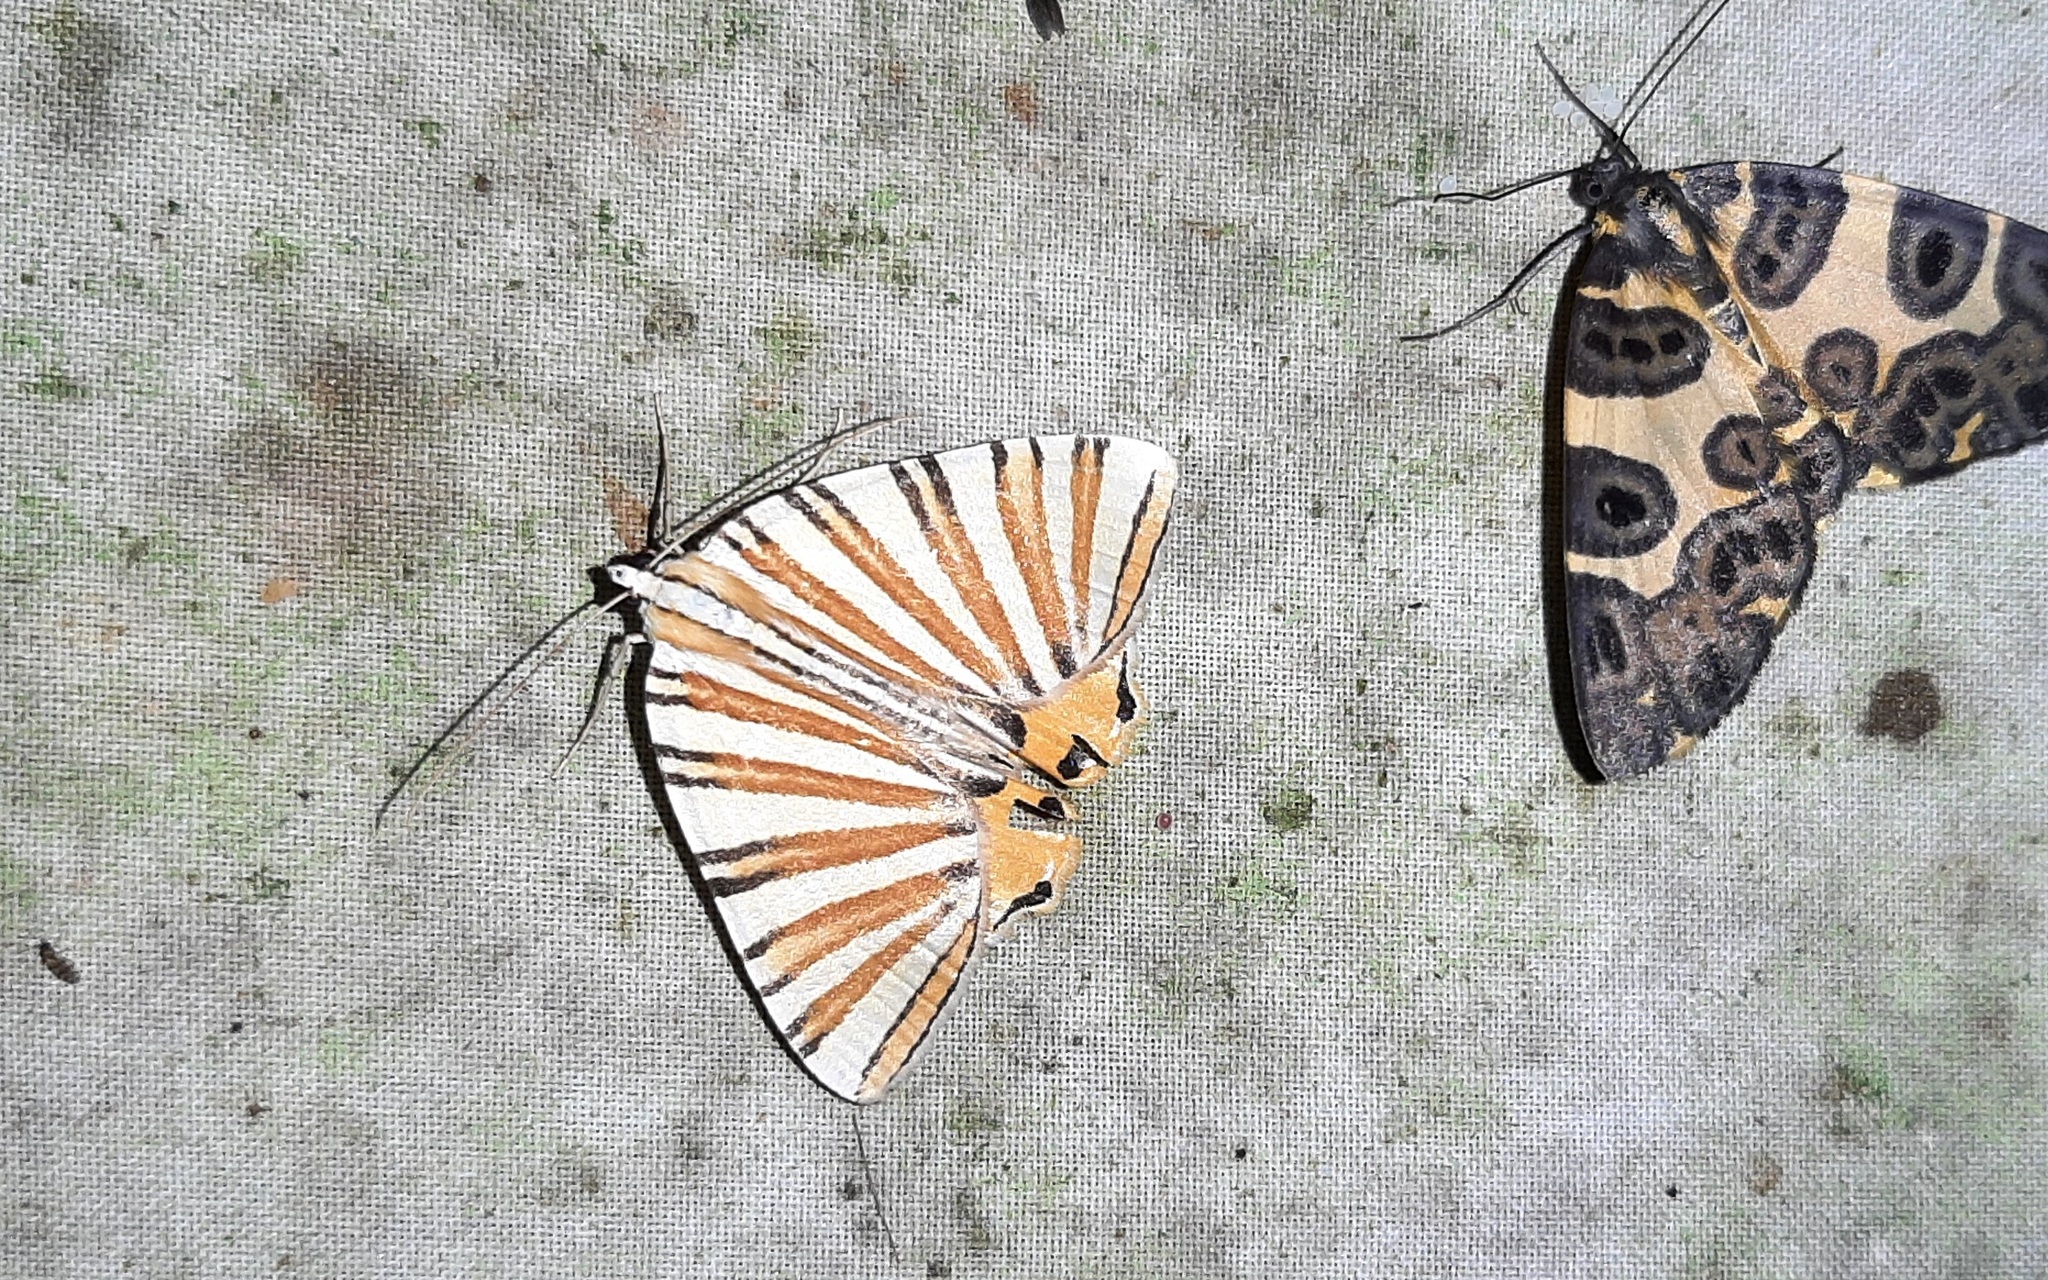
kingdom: Animalia
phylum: Arthropoda
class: Insecta
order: Lepidoptera
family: Geometridae
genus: Pityeja
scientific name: Pityeja histrionaria
